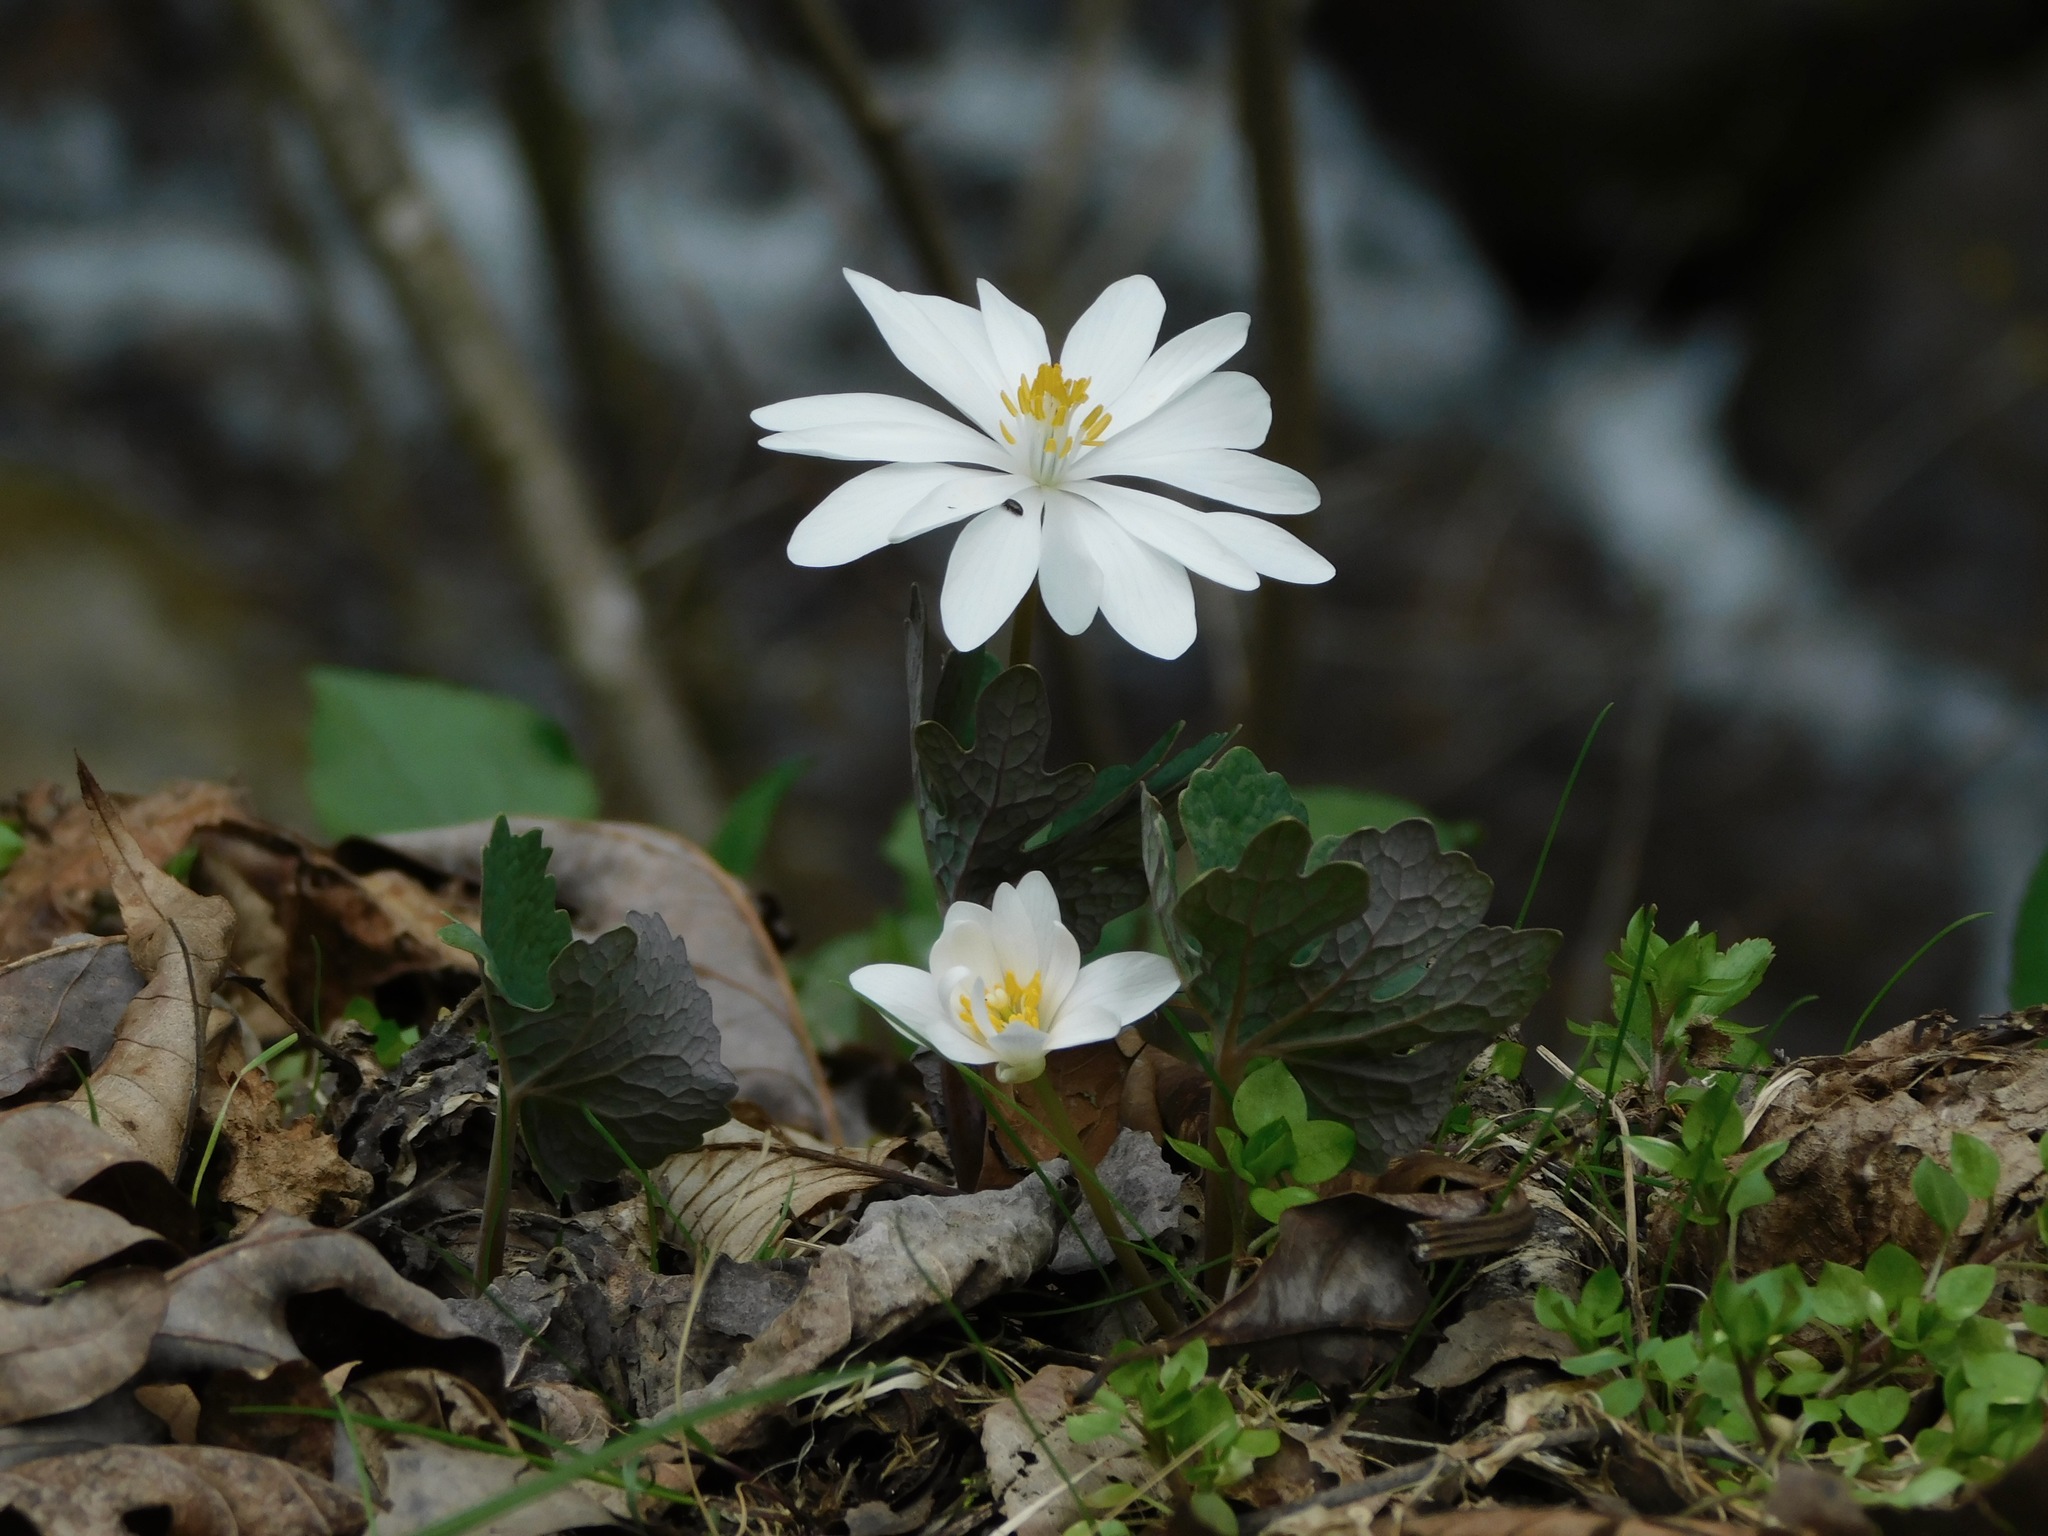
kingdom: Plantae
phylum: Tracheophyta
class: Magnoliopsida
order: Ranunculales
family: Papaveraceae
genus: Sanguinaria
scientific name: Sanguinaria canadensis
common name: Bloodroot
